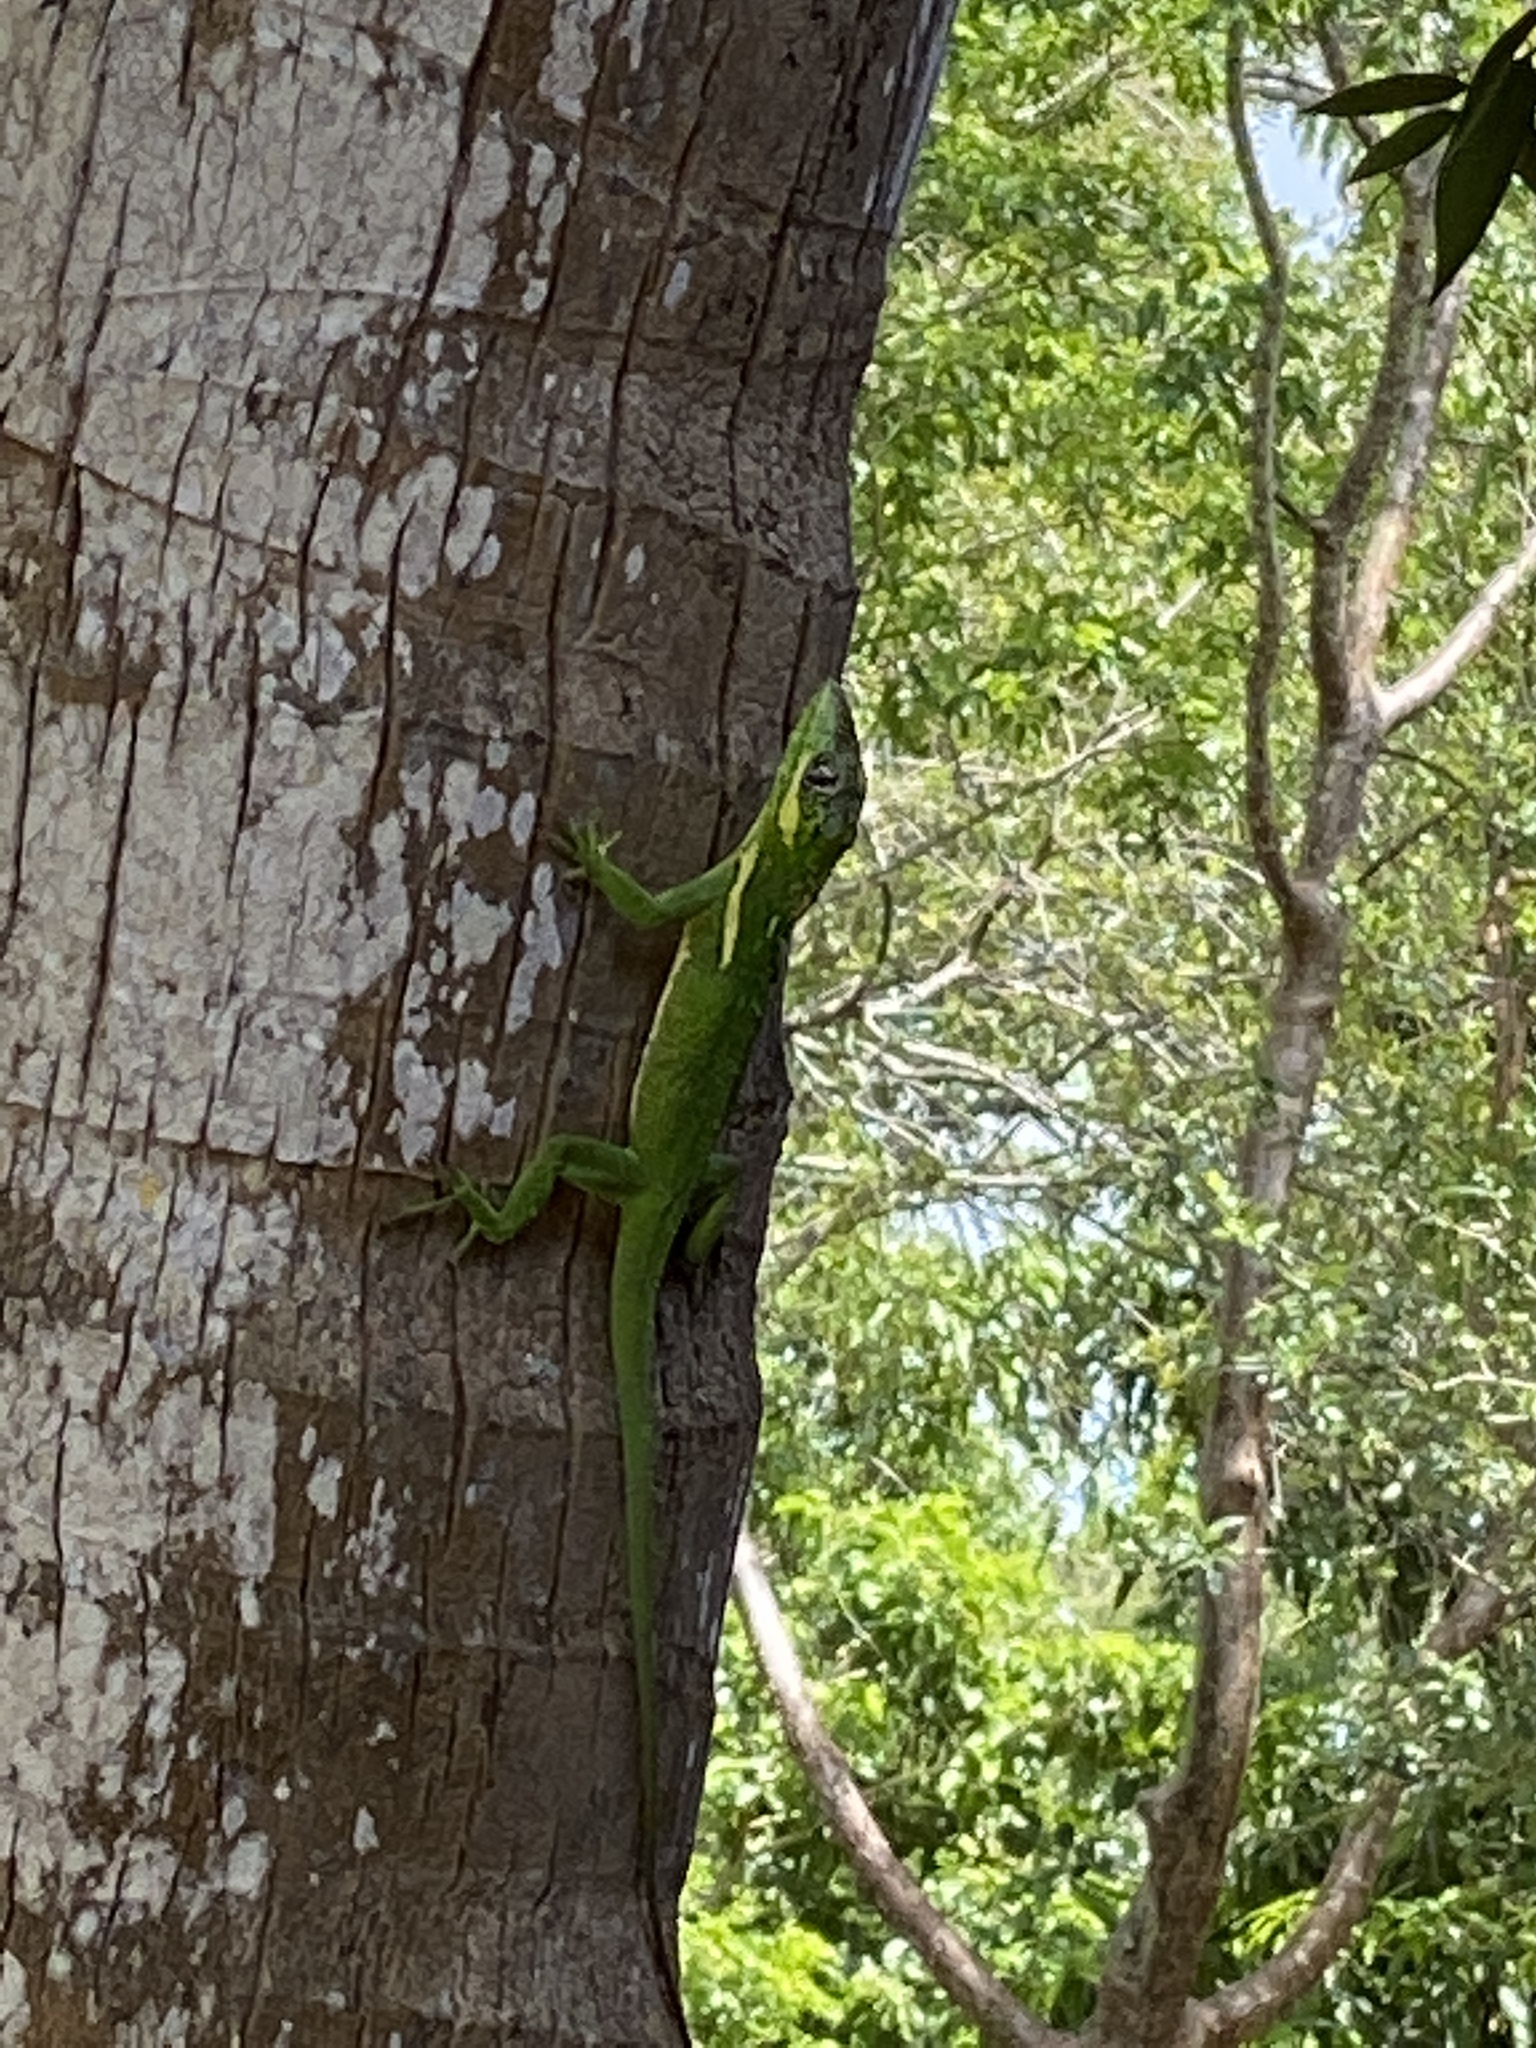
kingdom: Animalia
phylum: Chordata
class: Squamata
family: Dactyloidae
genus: Anolis
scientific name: Anolis equestris
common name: Knight anole
